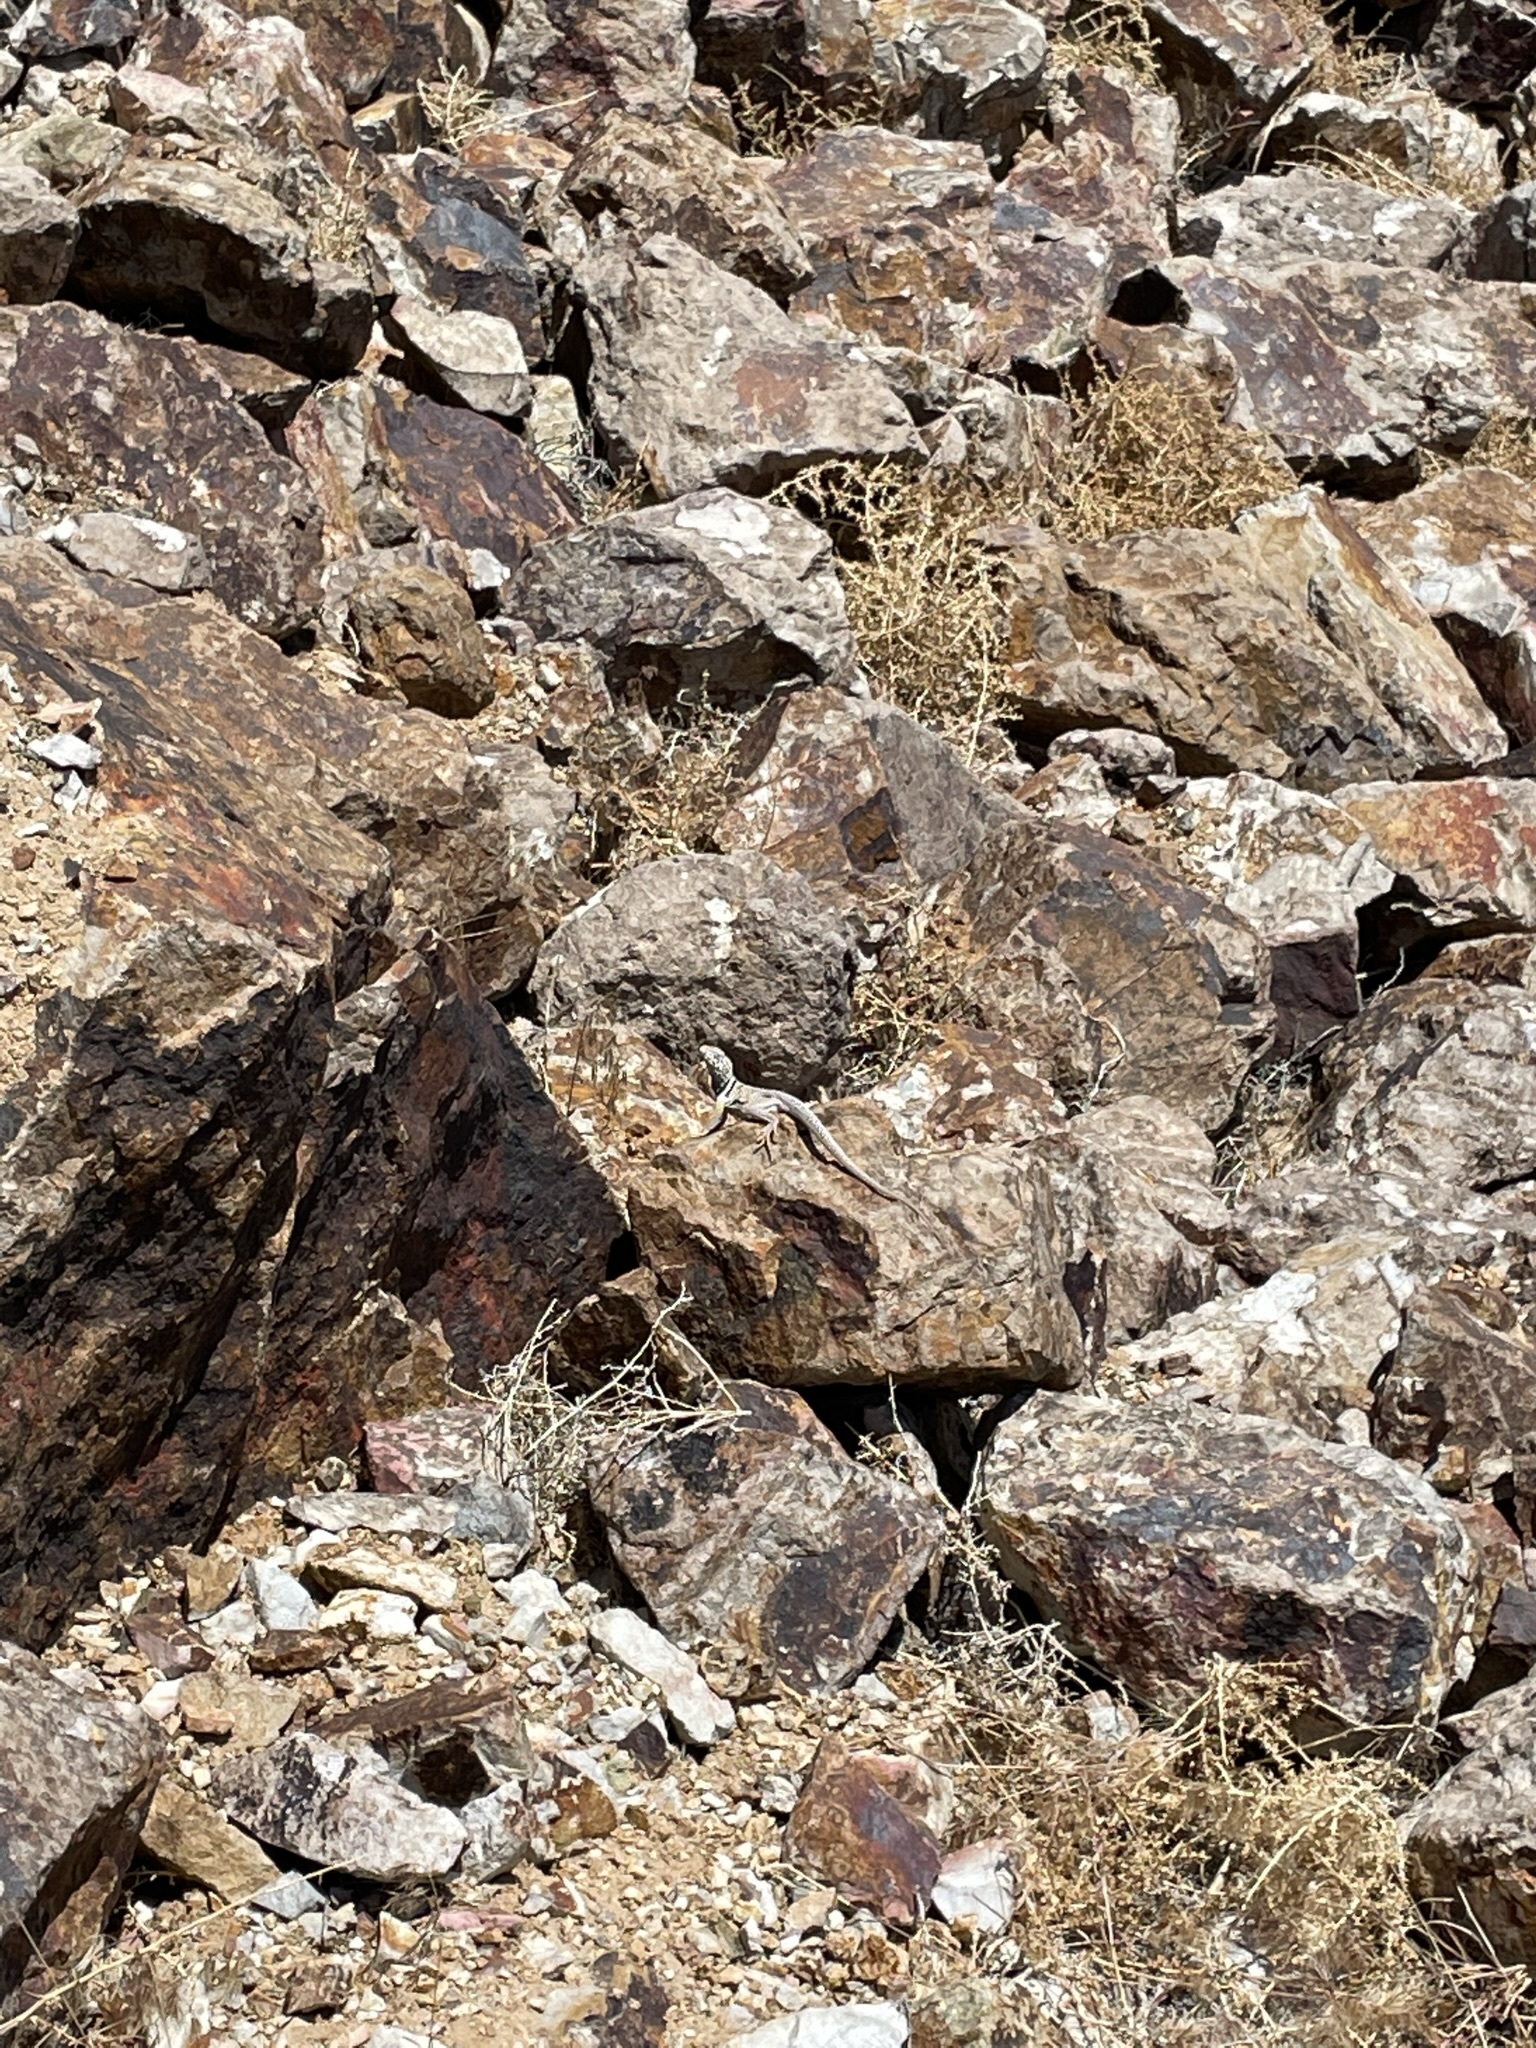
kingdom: Animalia
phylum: Chordata
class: Squamata
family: Crotaphytidae
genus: Crotaphytus
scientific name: Crotaphytus bicinctores
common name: Mojave black-collared lizard
